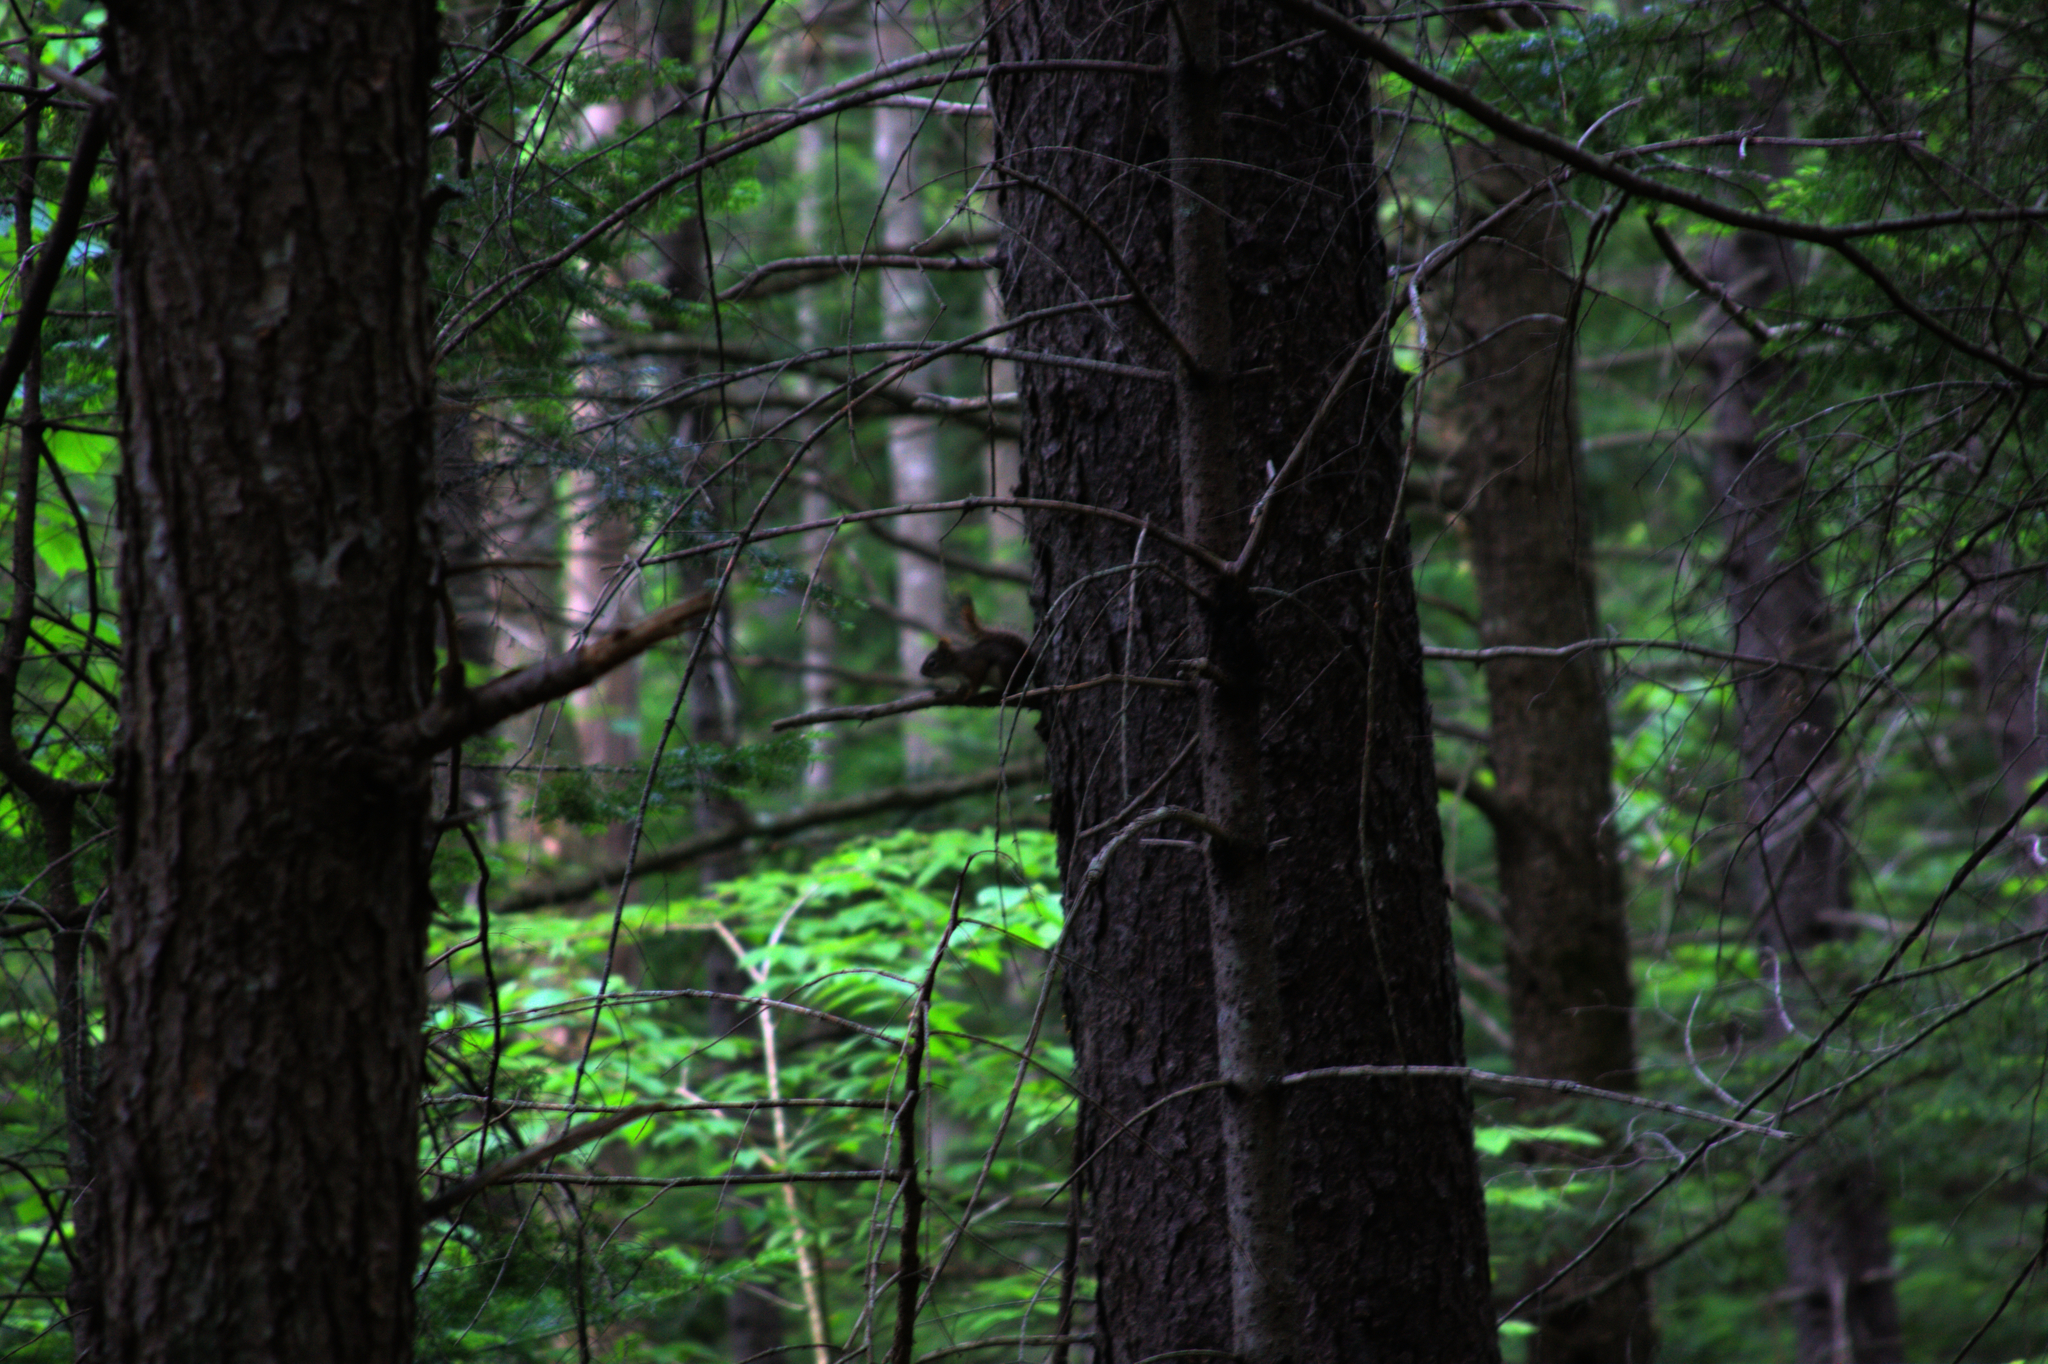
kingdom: Animalia
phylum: Chordata
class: Mammalia
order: Rodentia
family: Sciuridae
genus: Tamiasciurus
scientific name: Tamiasciurus hudsonicus
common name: Red squirrel
